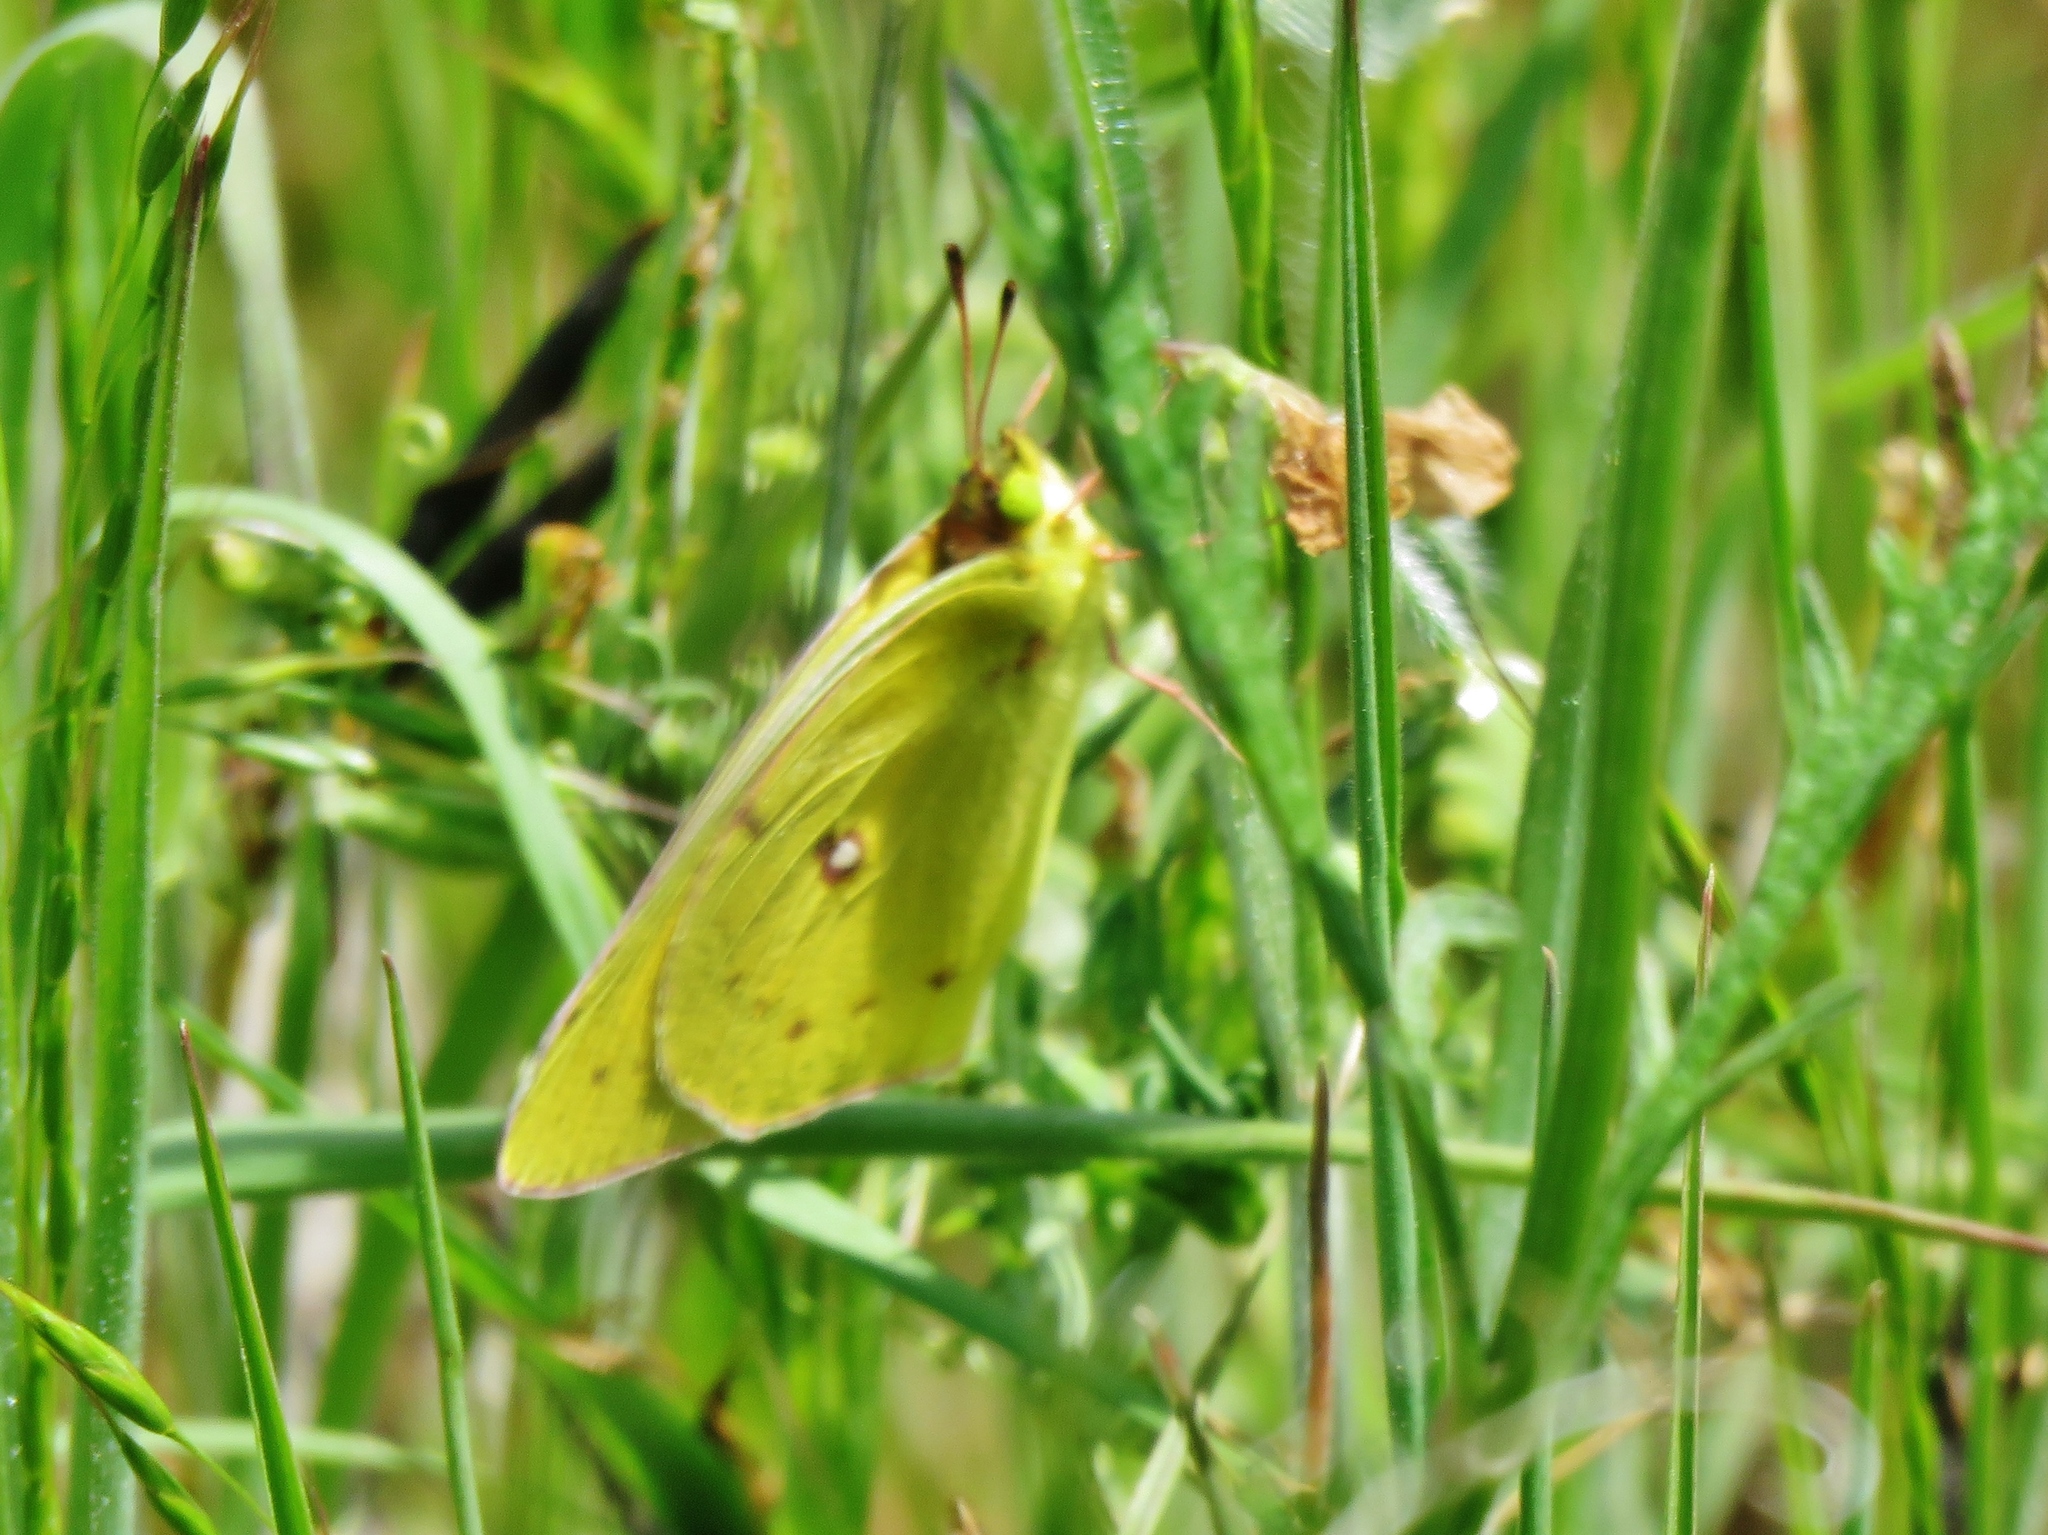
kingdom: Animalia
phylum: Arthropoda
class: Insecta
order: Lepidoptera
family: Pieridae
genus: Colias
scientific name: Colias eurytheme
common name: Alfalfa butterfly
